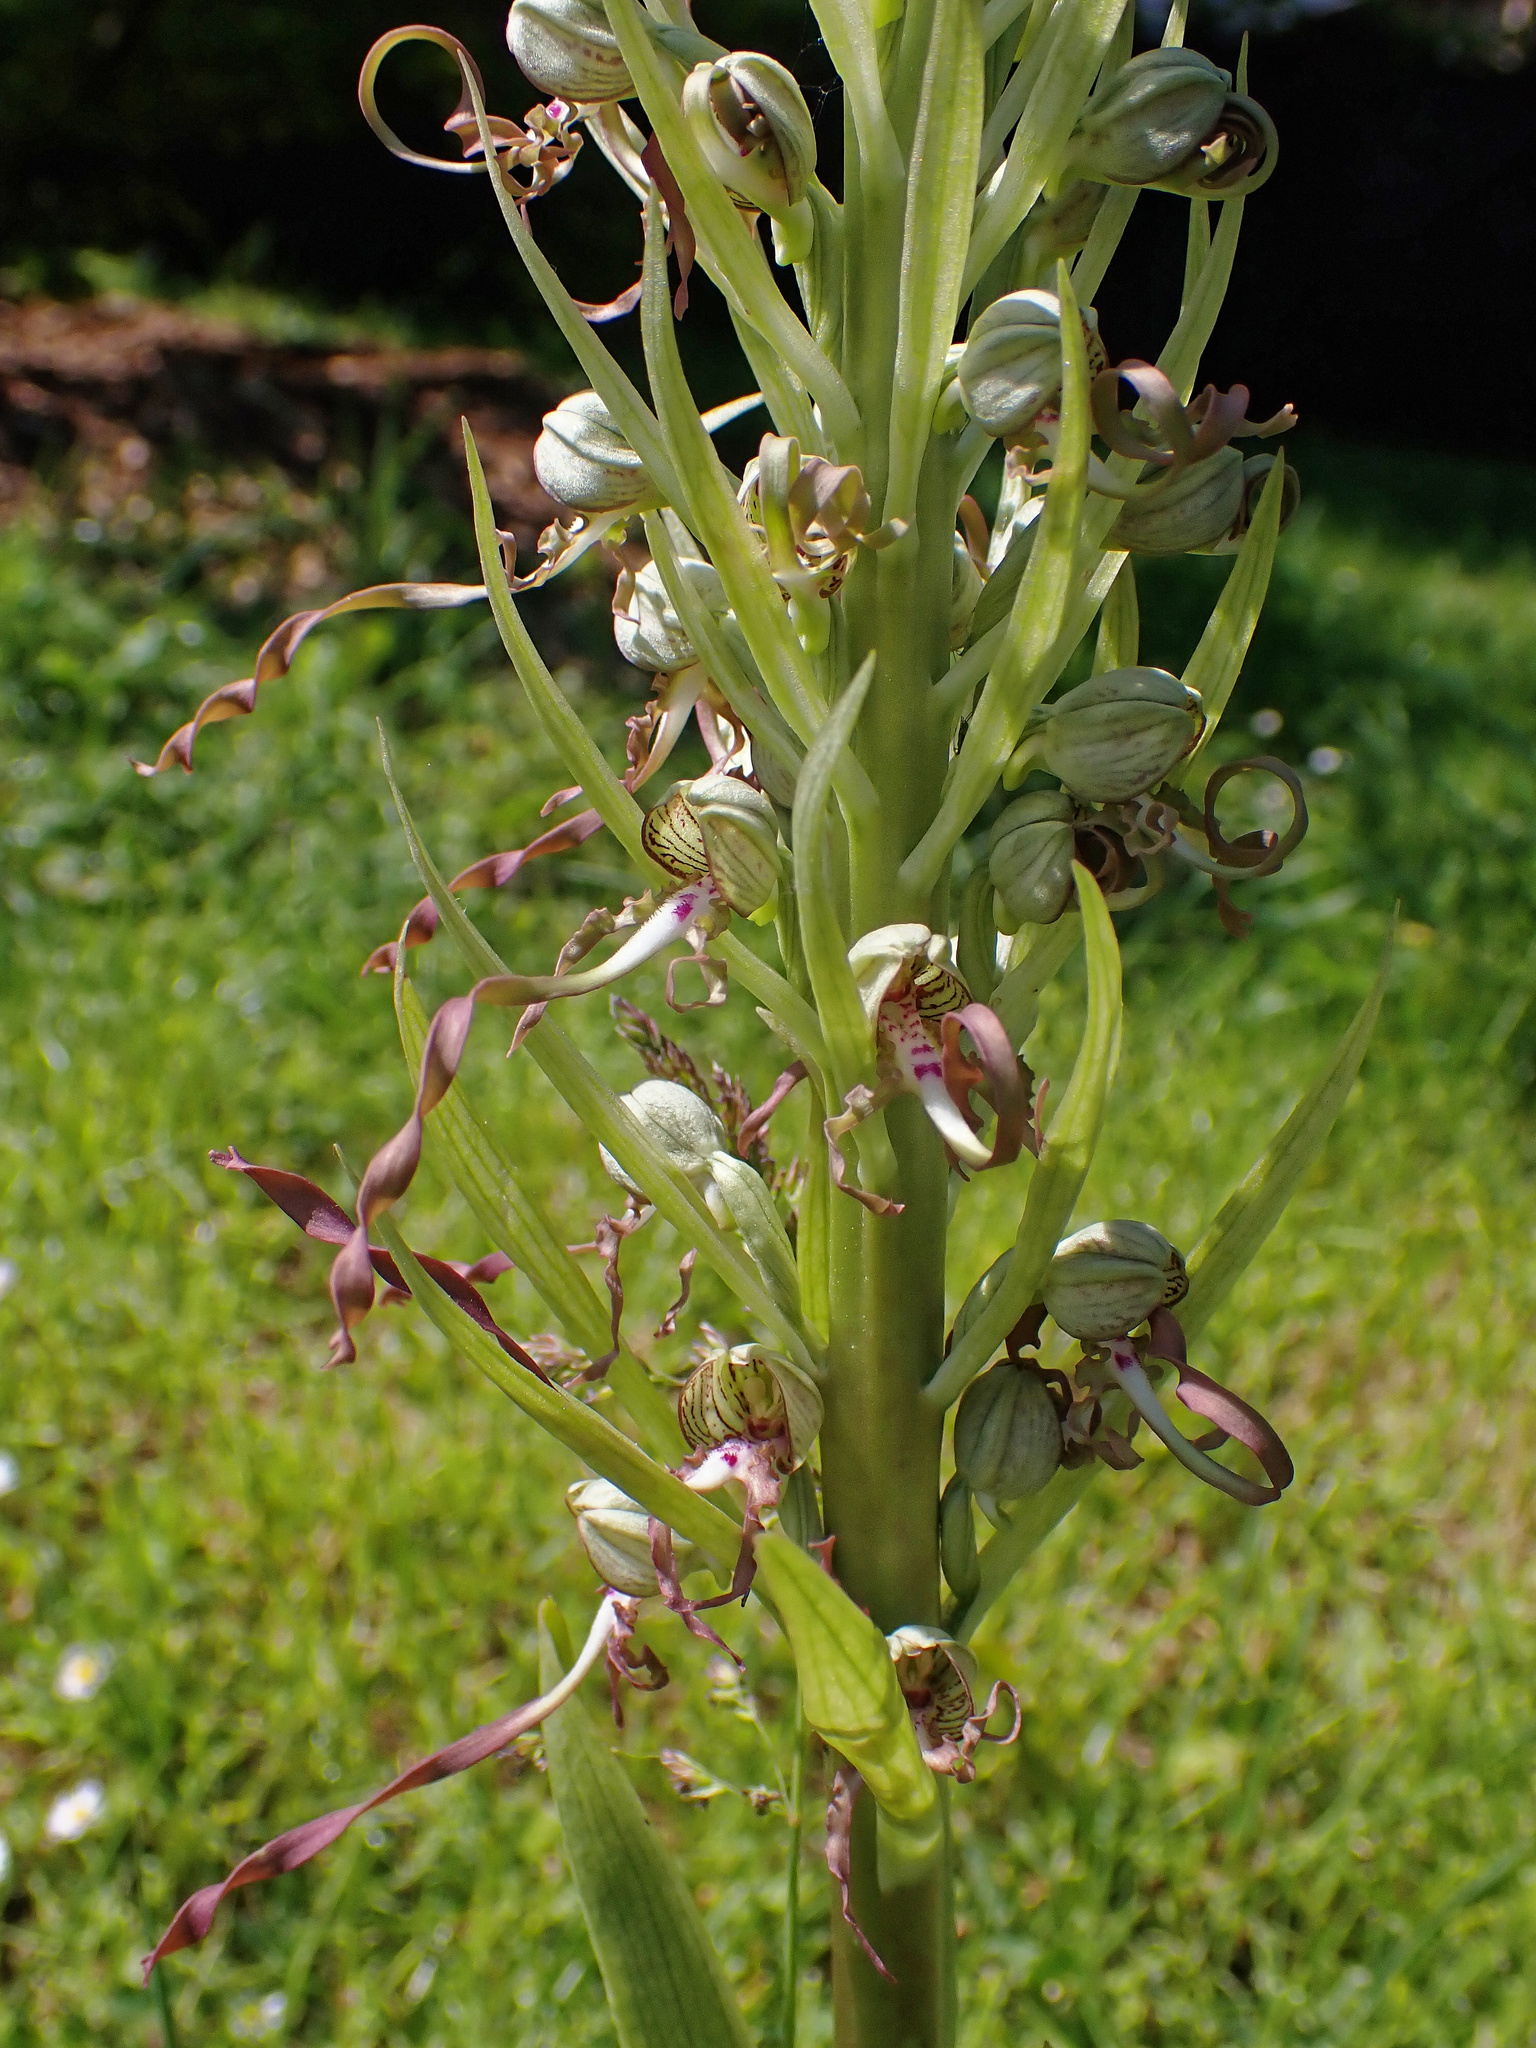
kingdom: Plantae
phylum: Tracheophyta
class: Liliopsida
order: Asparagales
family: Orchidaceae
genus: Himantoglossum
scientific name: Himantoglossum hircinum
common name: Lizard orchid
